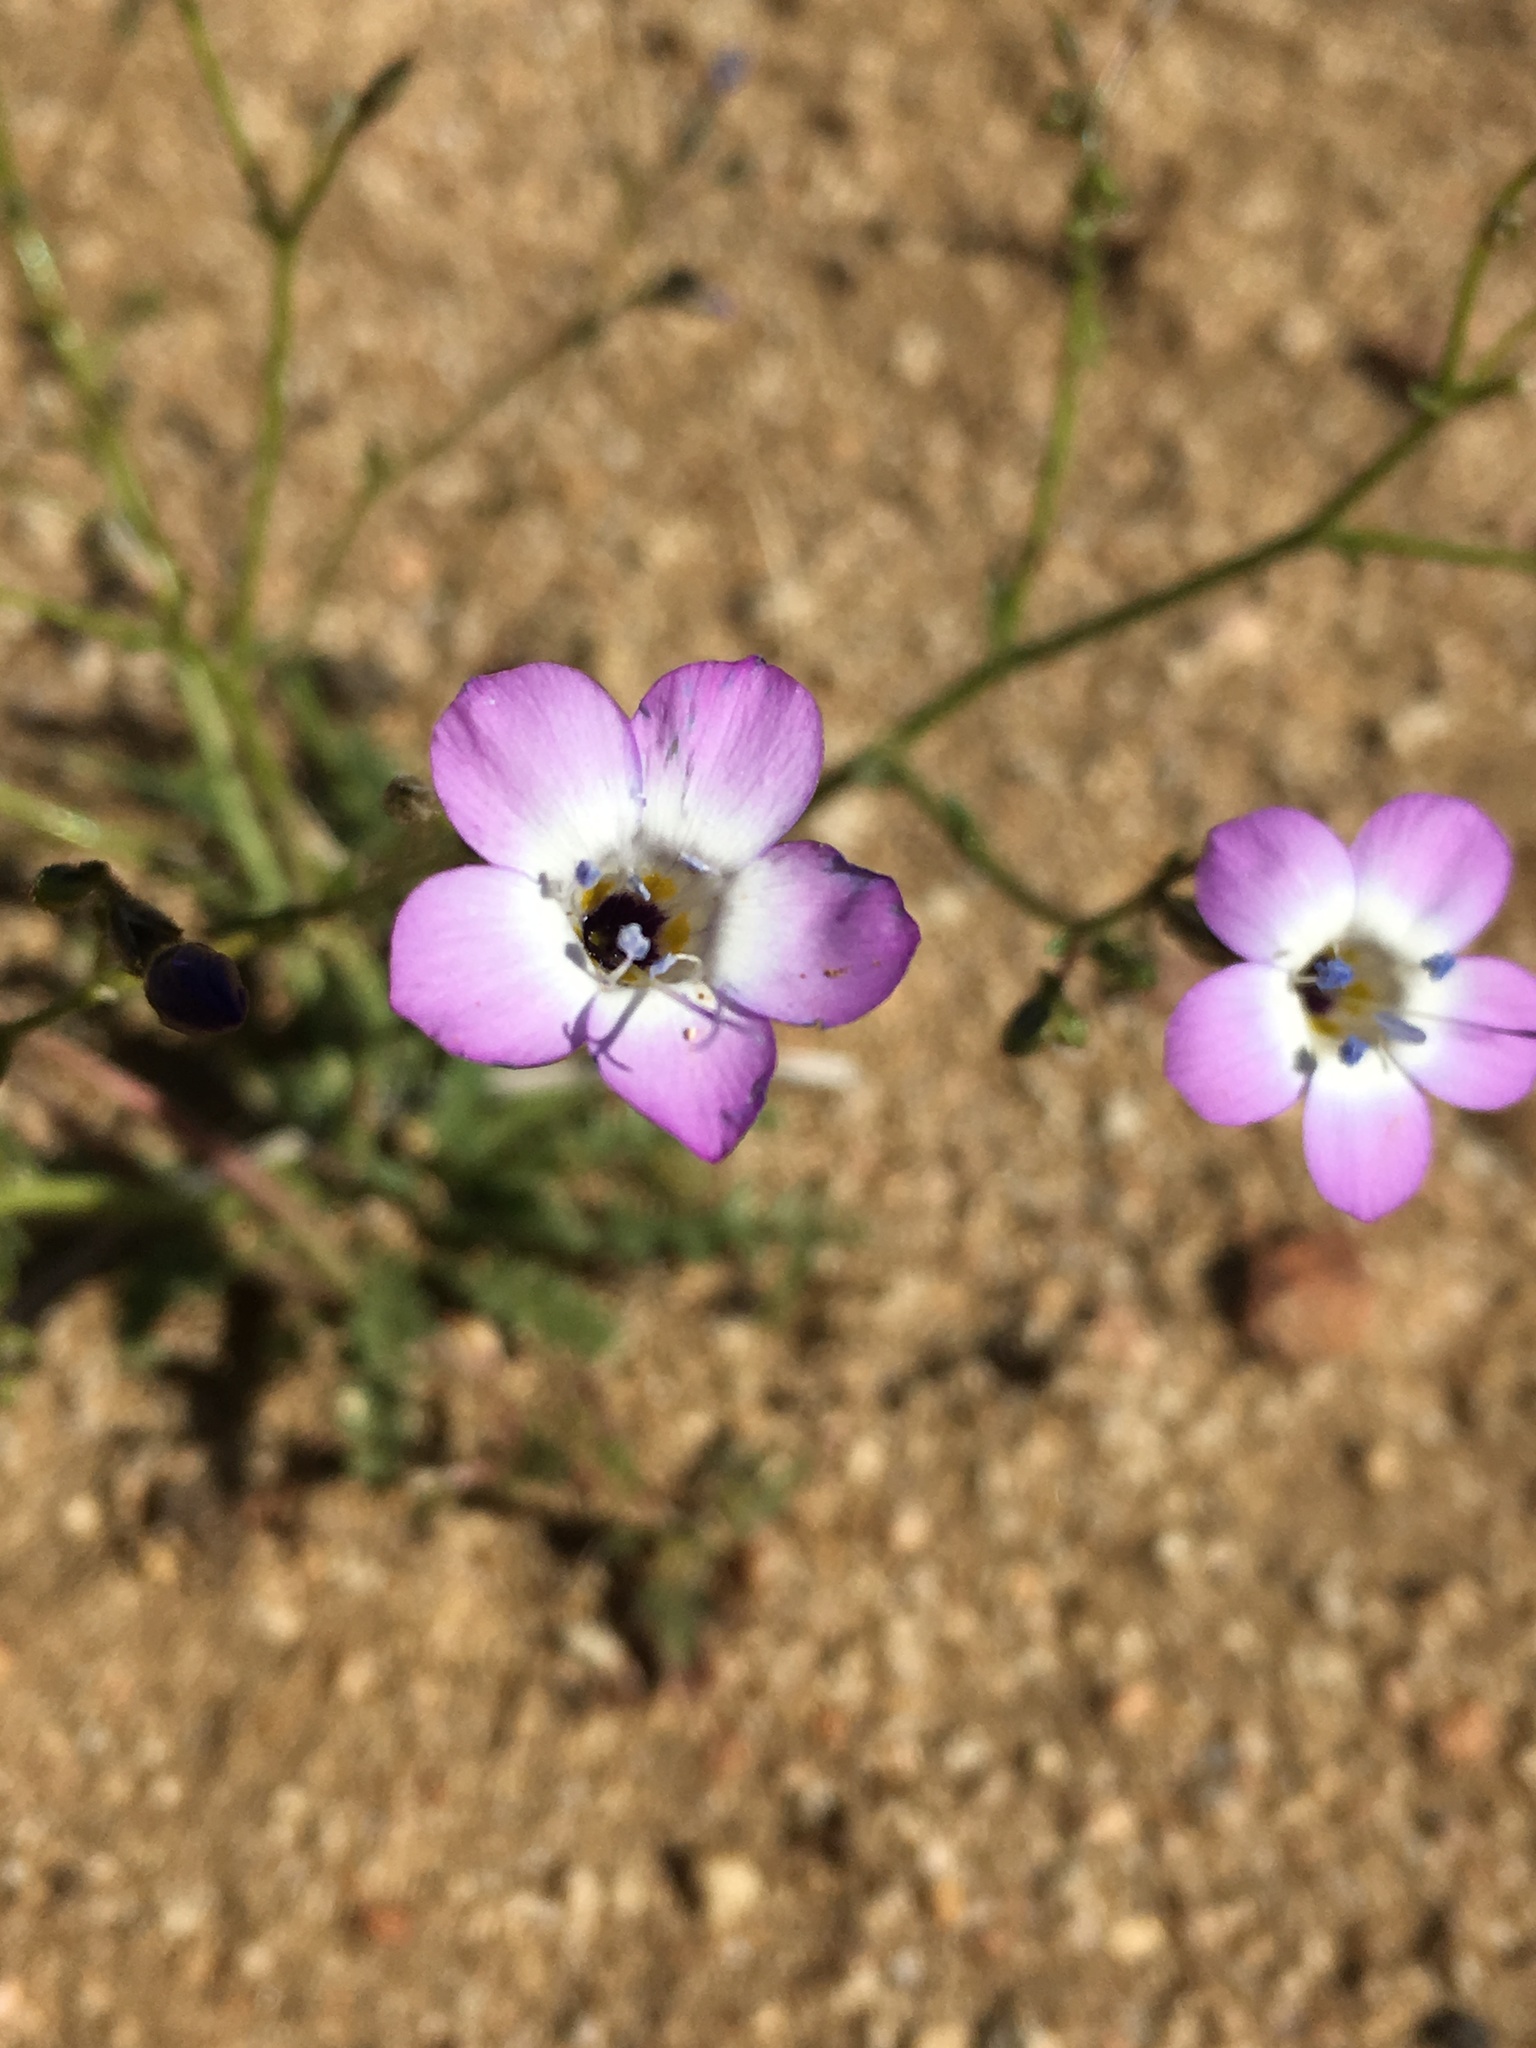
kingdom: Plantae
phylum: Tracheophyta
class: Magnoliopsida
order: Ericales
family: Polemoniaceae
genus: Gilia
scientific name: Gilia latiflora
